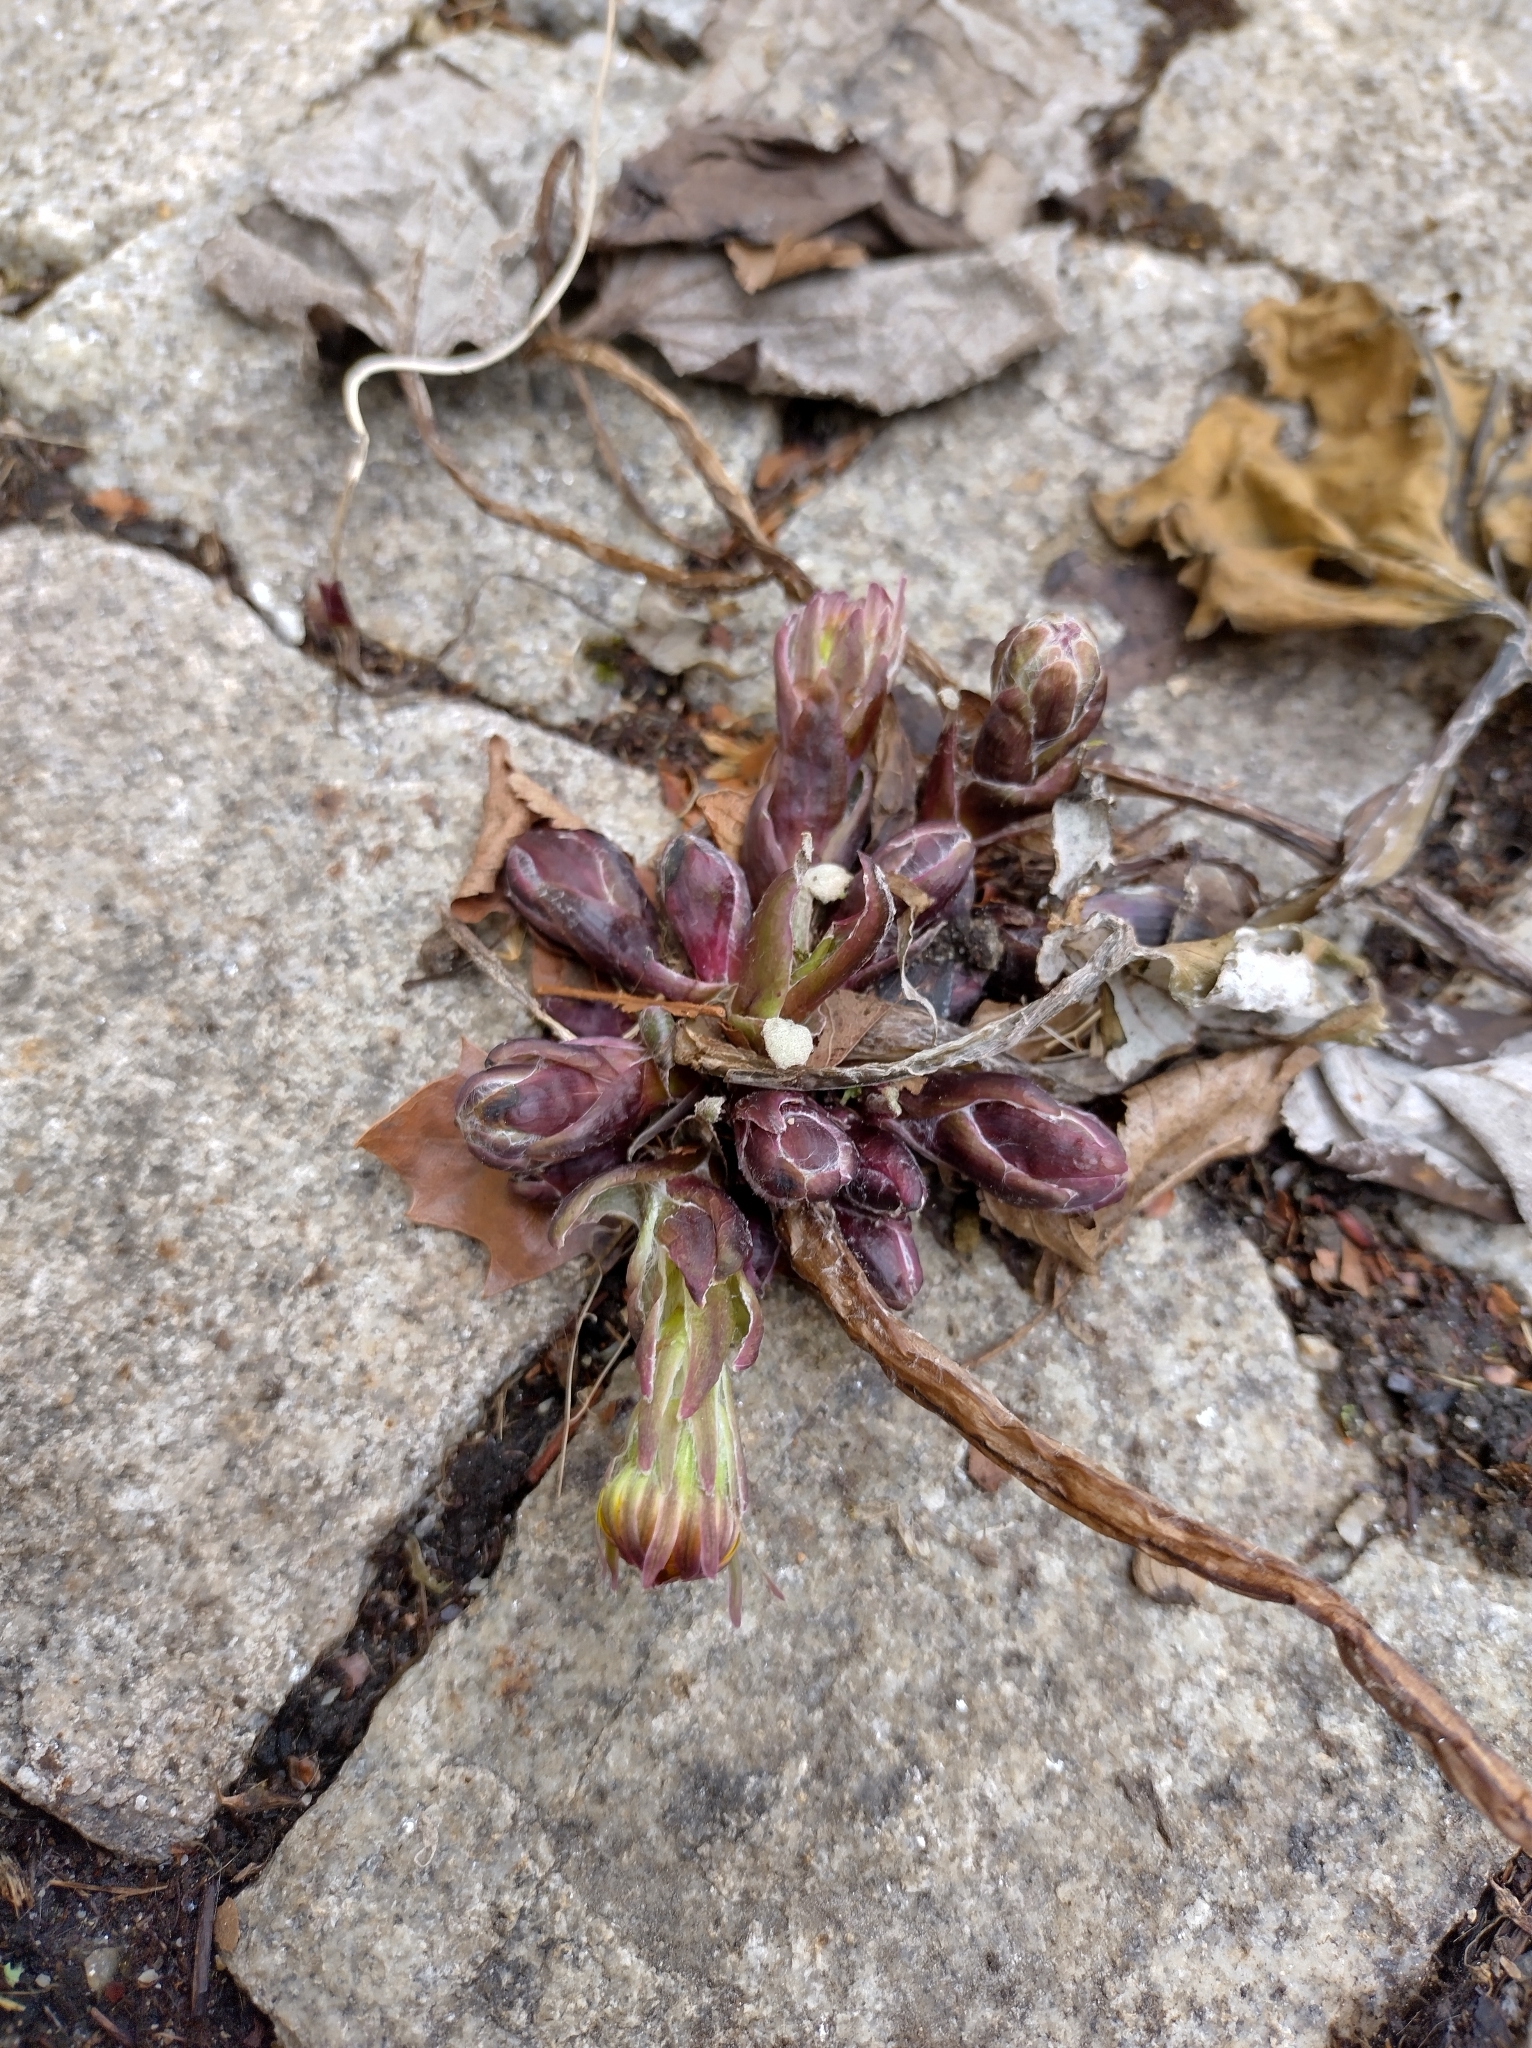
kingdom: Plantae
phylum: Tracheophyta
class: Magnoliopsida
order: Asterales
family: Asteraceae
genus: Tussilago
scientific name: Tussilago farfara
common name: Coltsfoot
